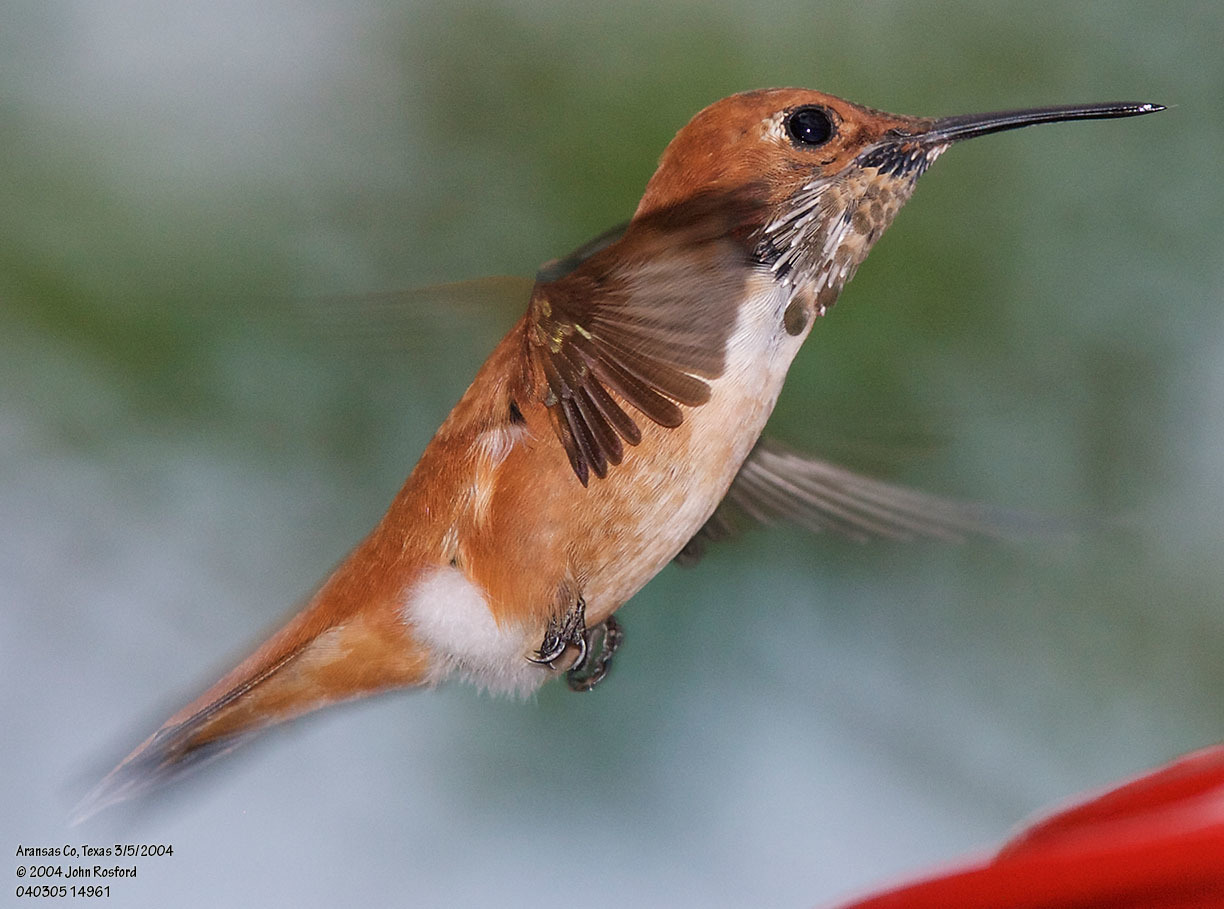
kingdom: Animalia
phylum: Chordata
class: Aves
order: Apodiformes
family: Trochilidae
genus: Selasphorus
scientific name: Selasphorus rufus
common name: Rufous hummingbird
